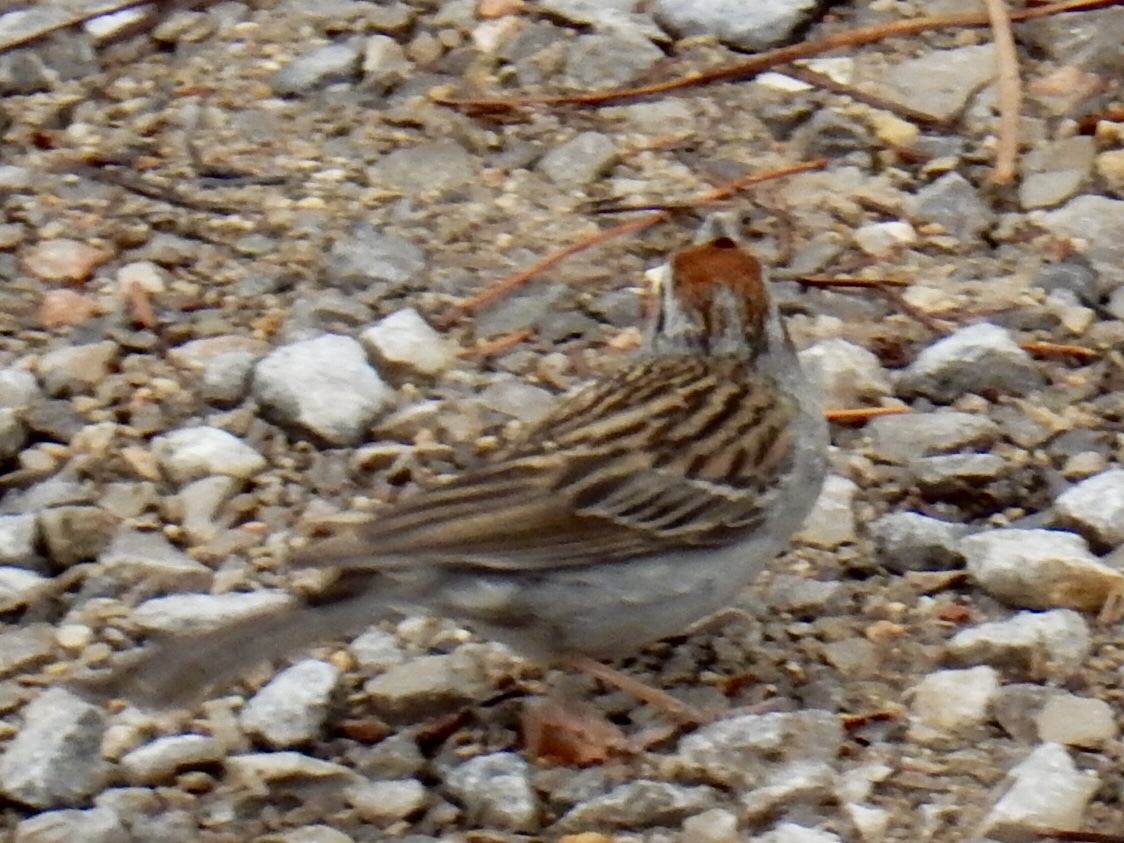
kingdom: Animalia
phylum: Chordata
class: Aves
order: Passeriformes
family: Passerellidae
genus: Spizella
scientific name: Spizella passerina
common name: Chipping sparrow
